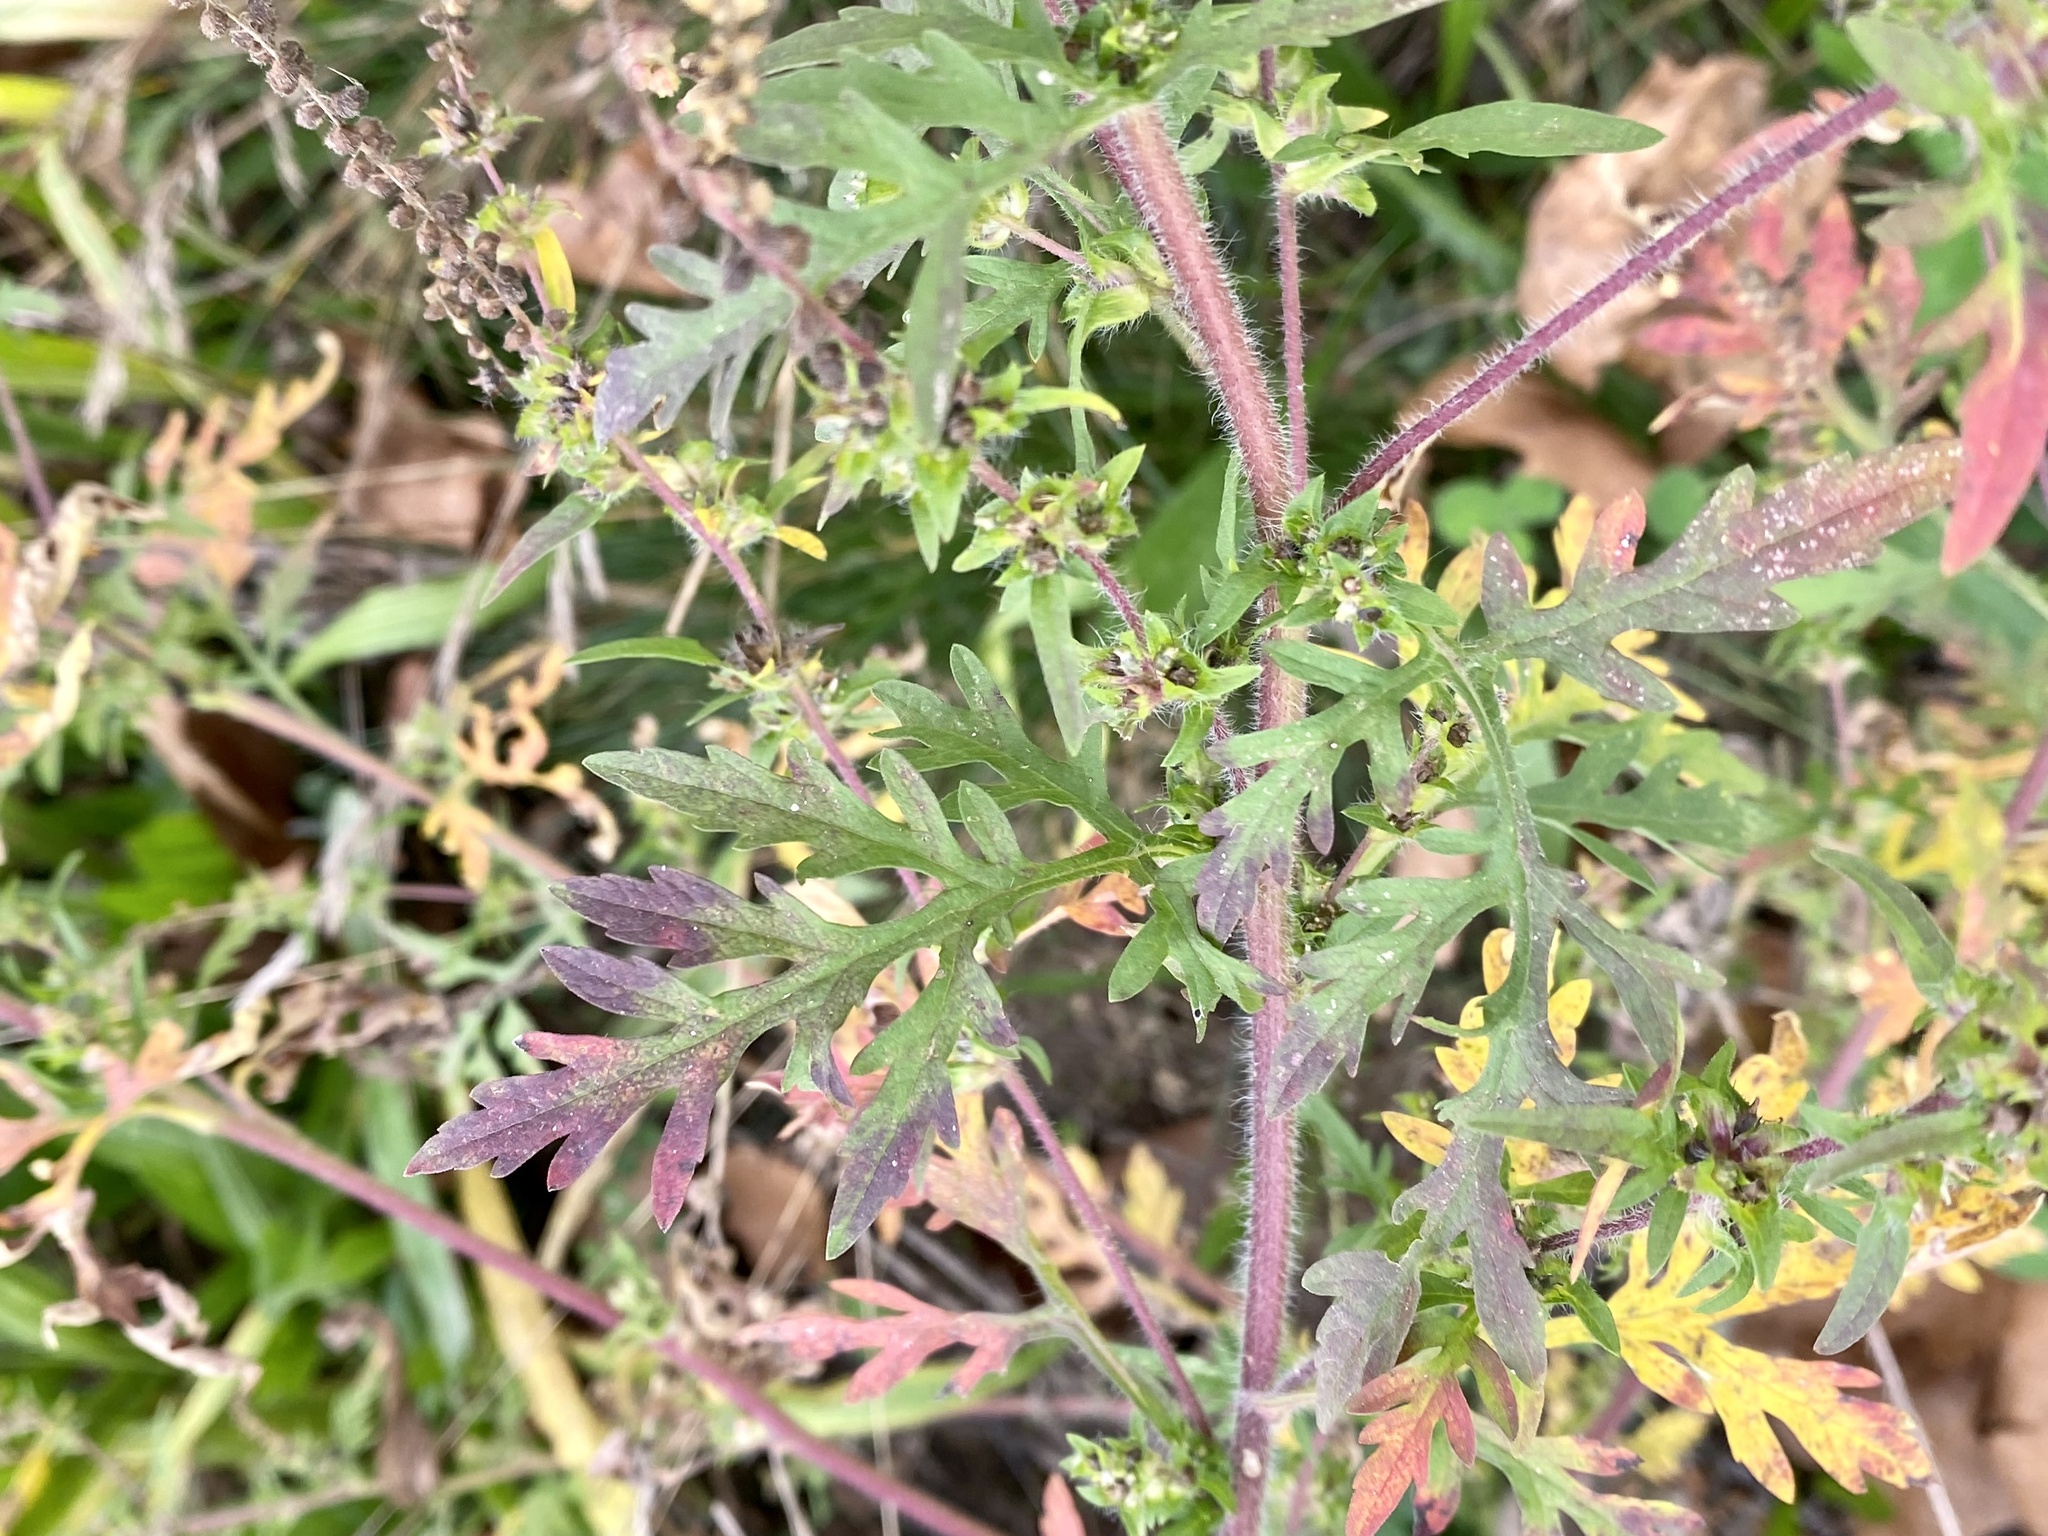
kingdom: Plantae
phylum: Tracheophyta
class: Magnoliopsida
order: Asterales
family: Asteraceae
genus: Ambrosia
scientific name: Ambrosia artemisiifolia
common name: Annual ragweed
